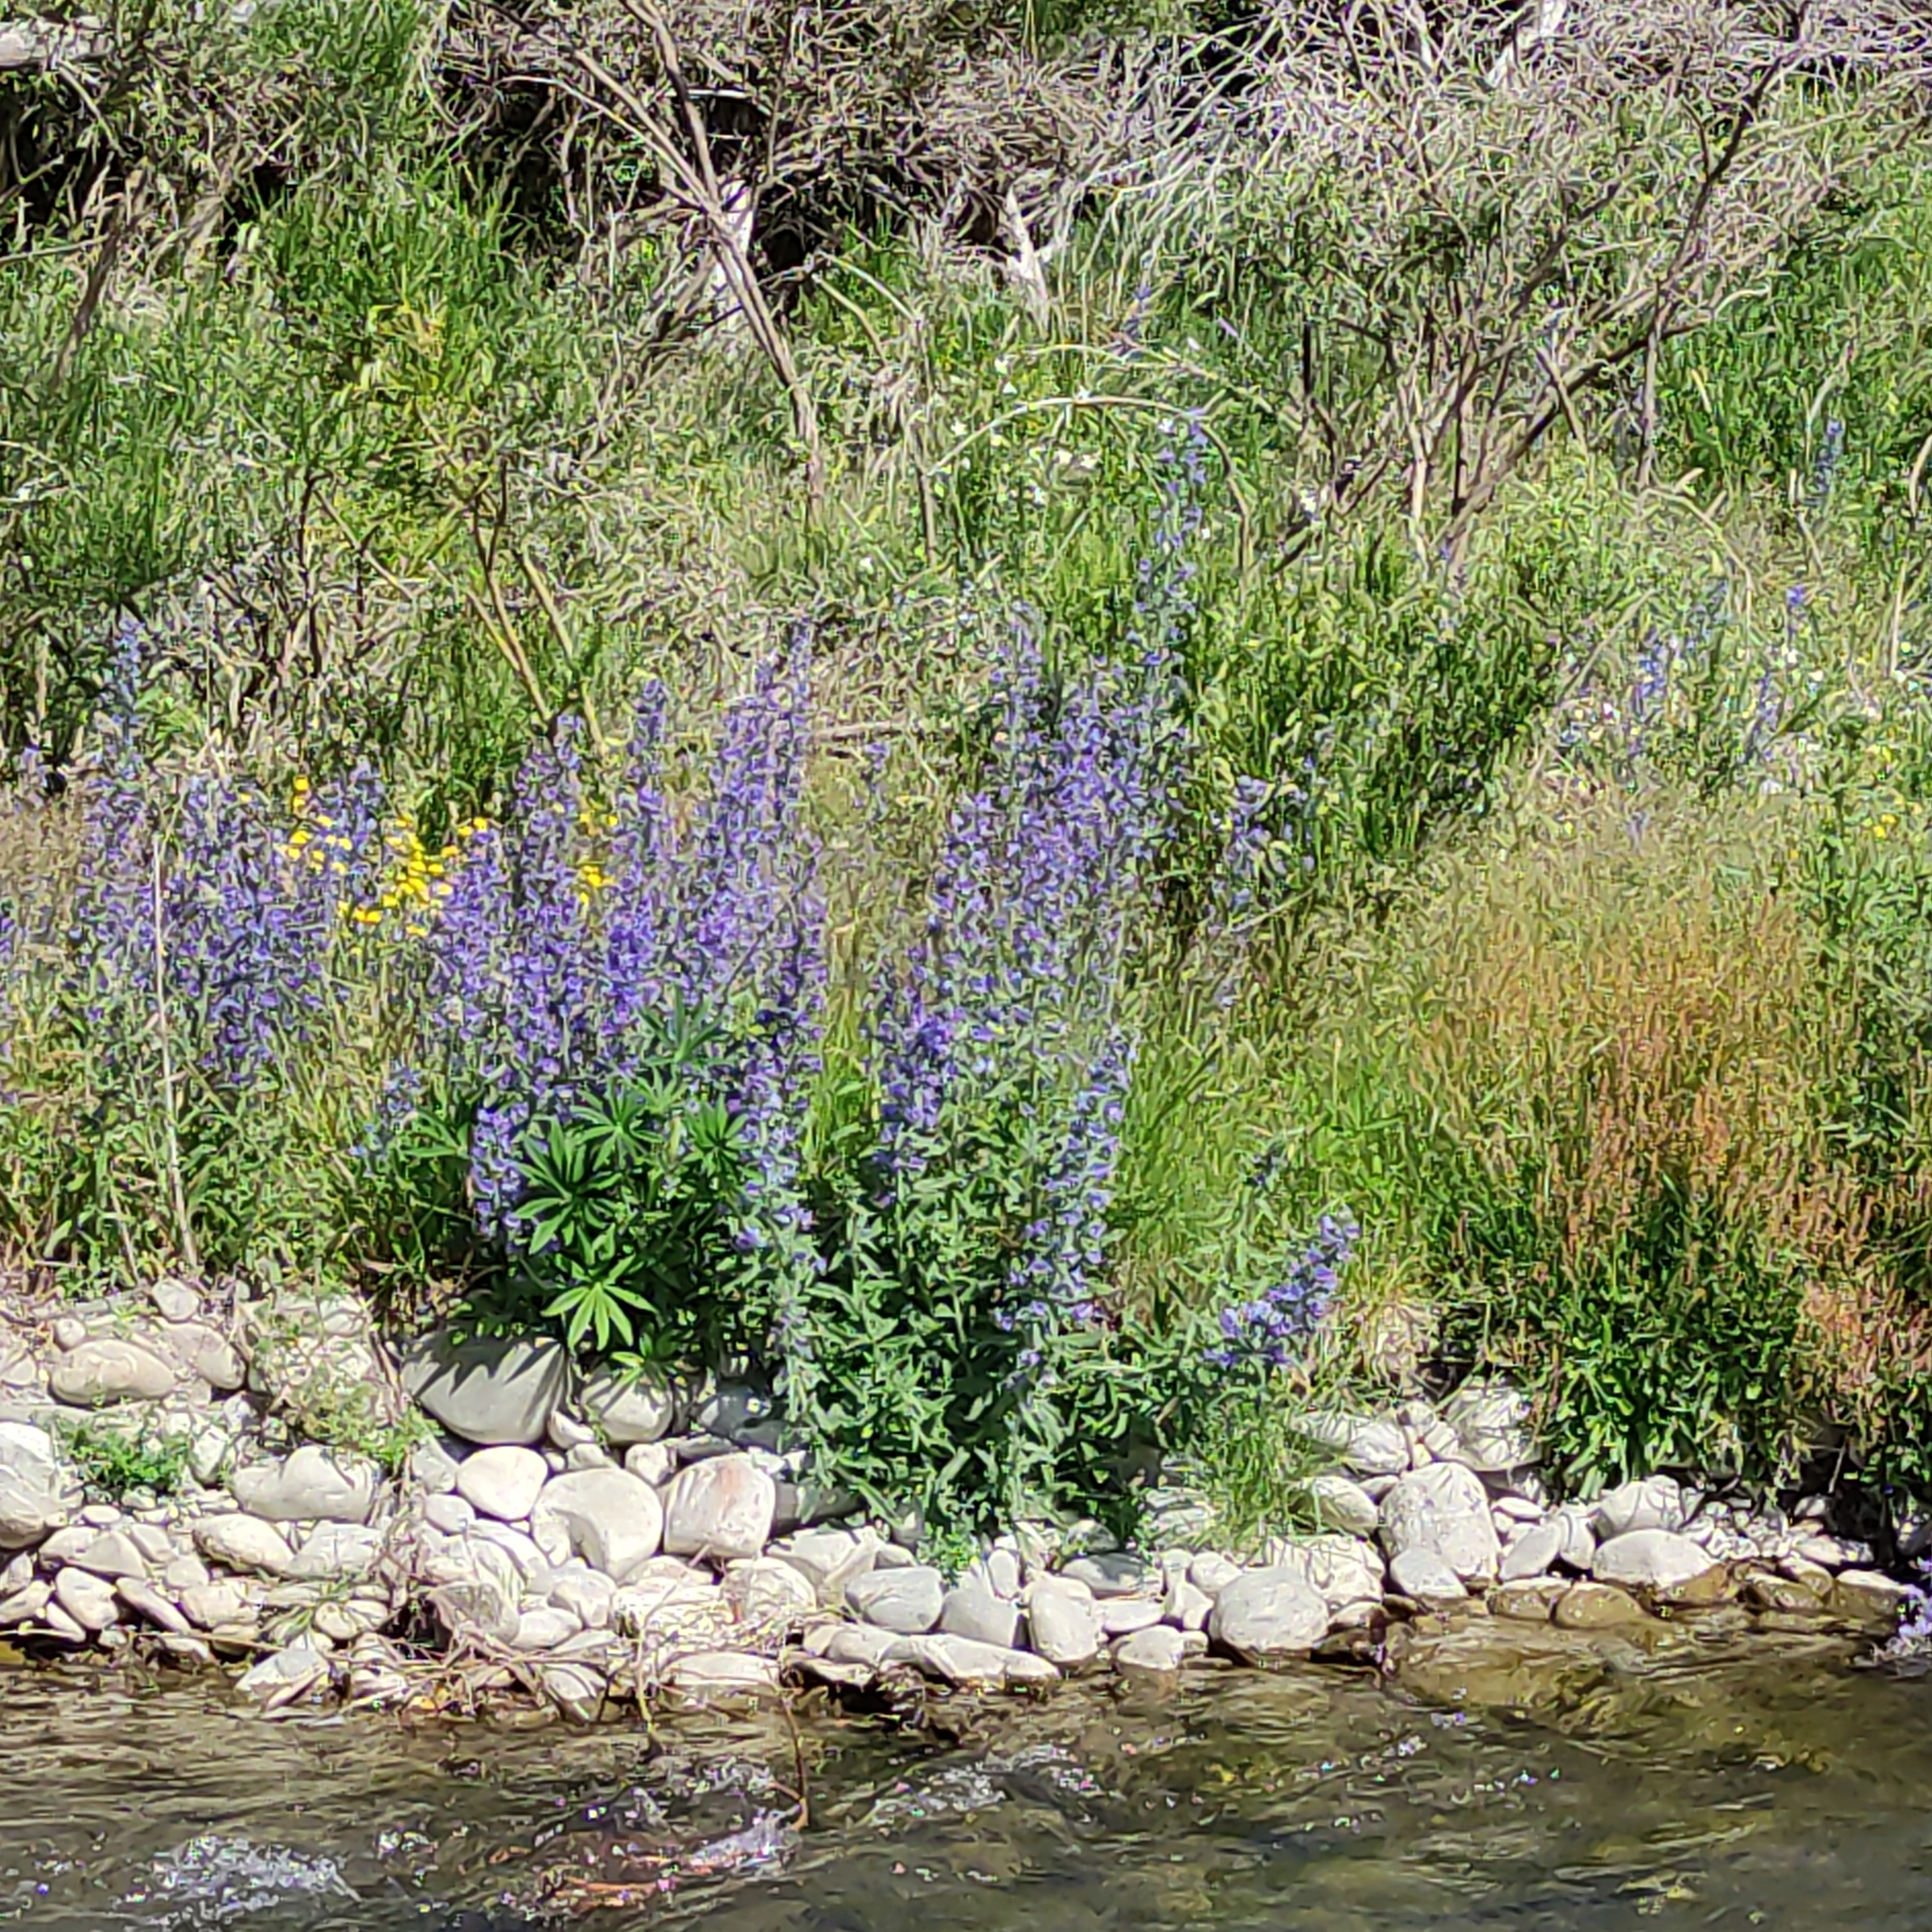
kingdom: Plantae
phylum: Tracheophyta
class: Magnoliopsida
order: Fabales
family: Fabaceae
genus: Lupinus
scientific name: Lupinus polyphyllus
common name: Garden lupin
